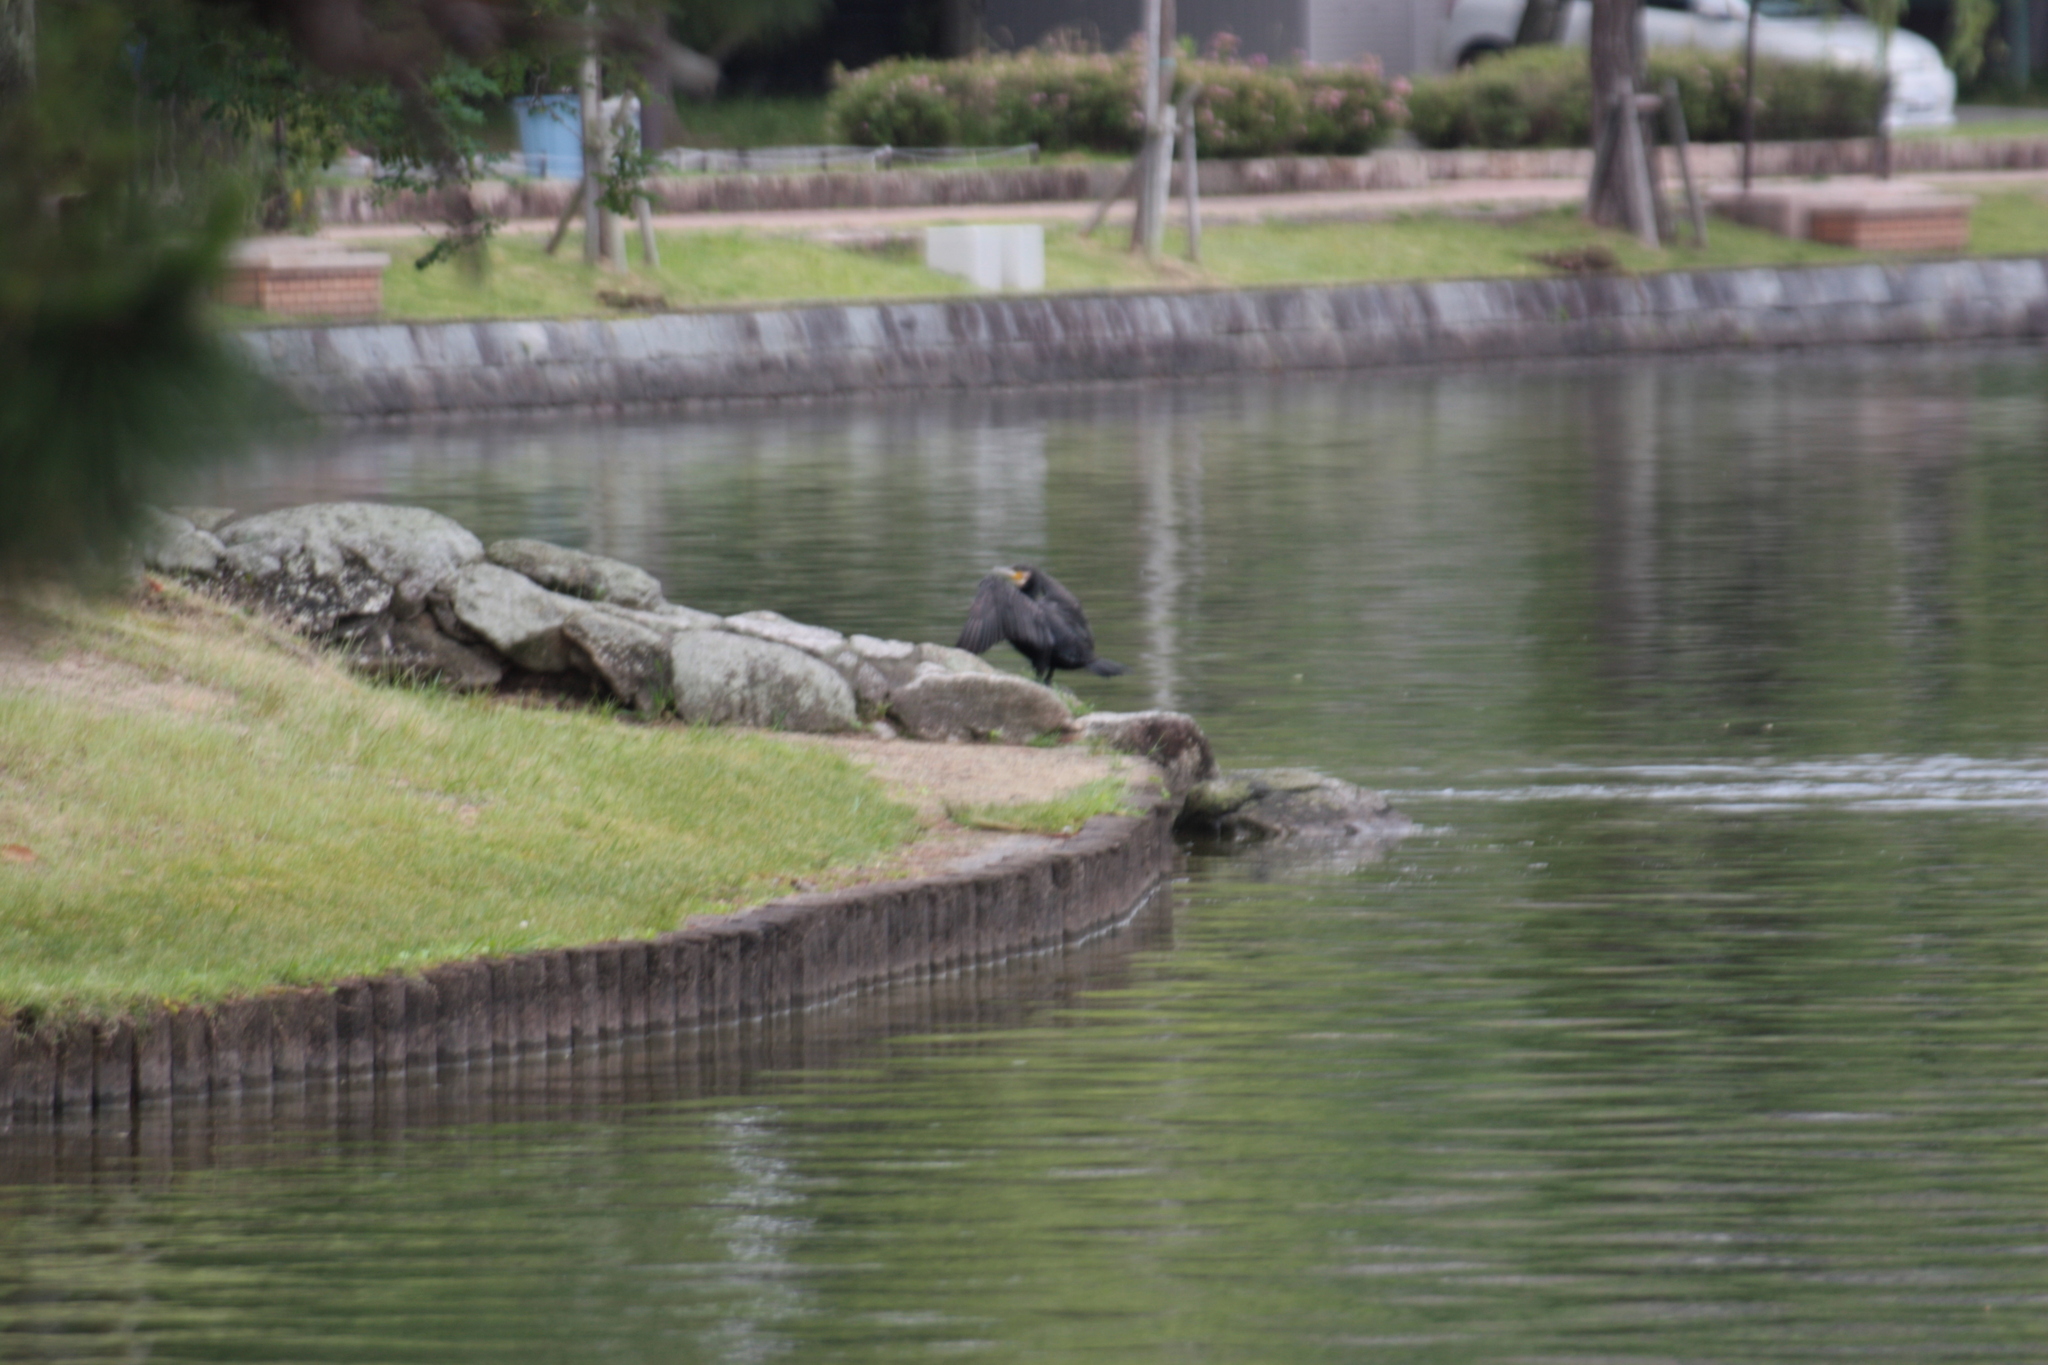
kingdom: Animalia
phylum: Chordata
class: Aves
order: Suliformes
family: Phalacrocoracidae
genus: Phalacrocorax
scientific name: Phalacrocorax carbo
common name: Great cormorant
